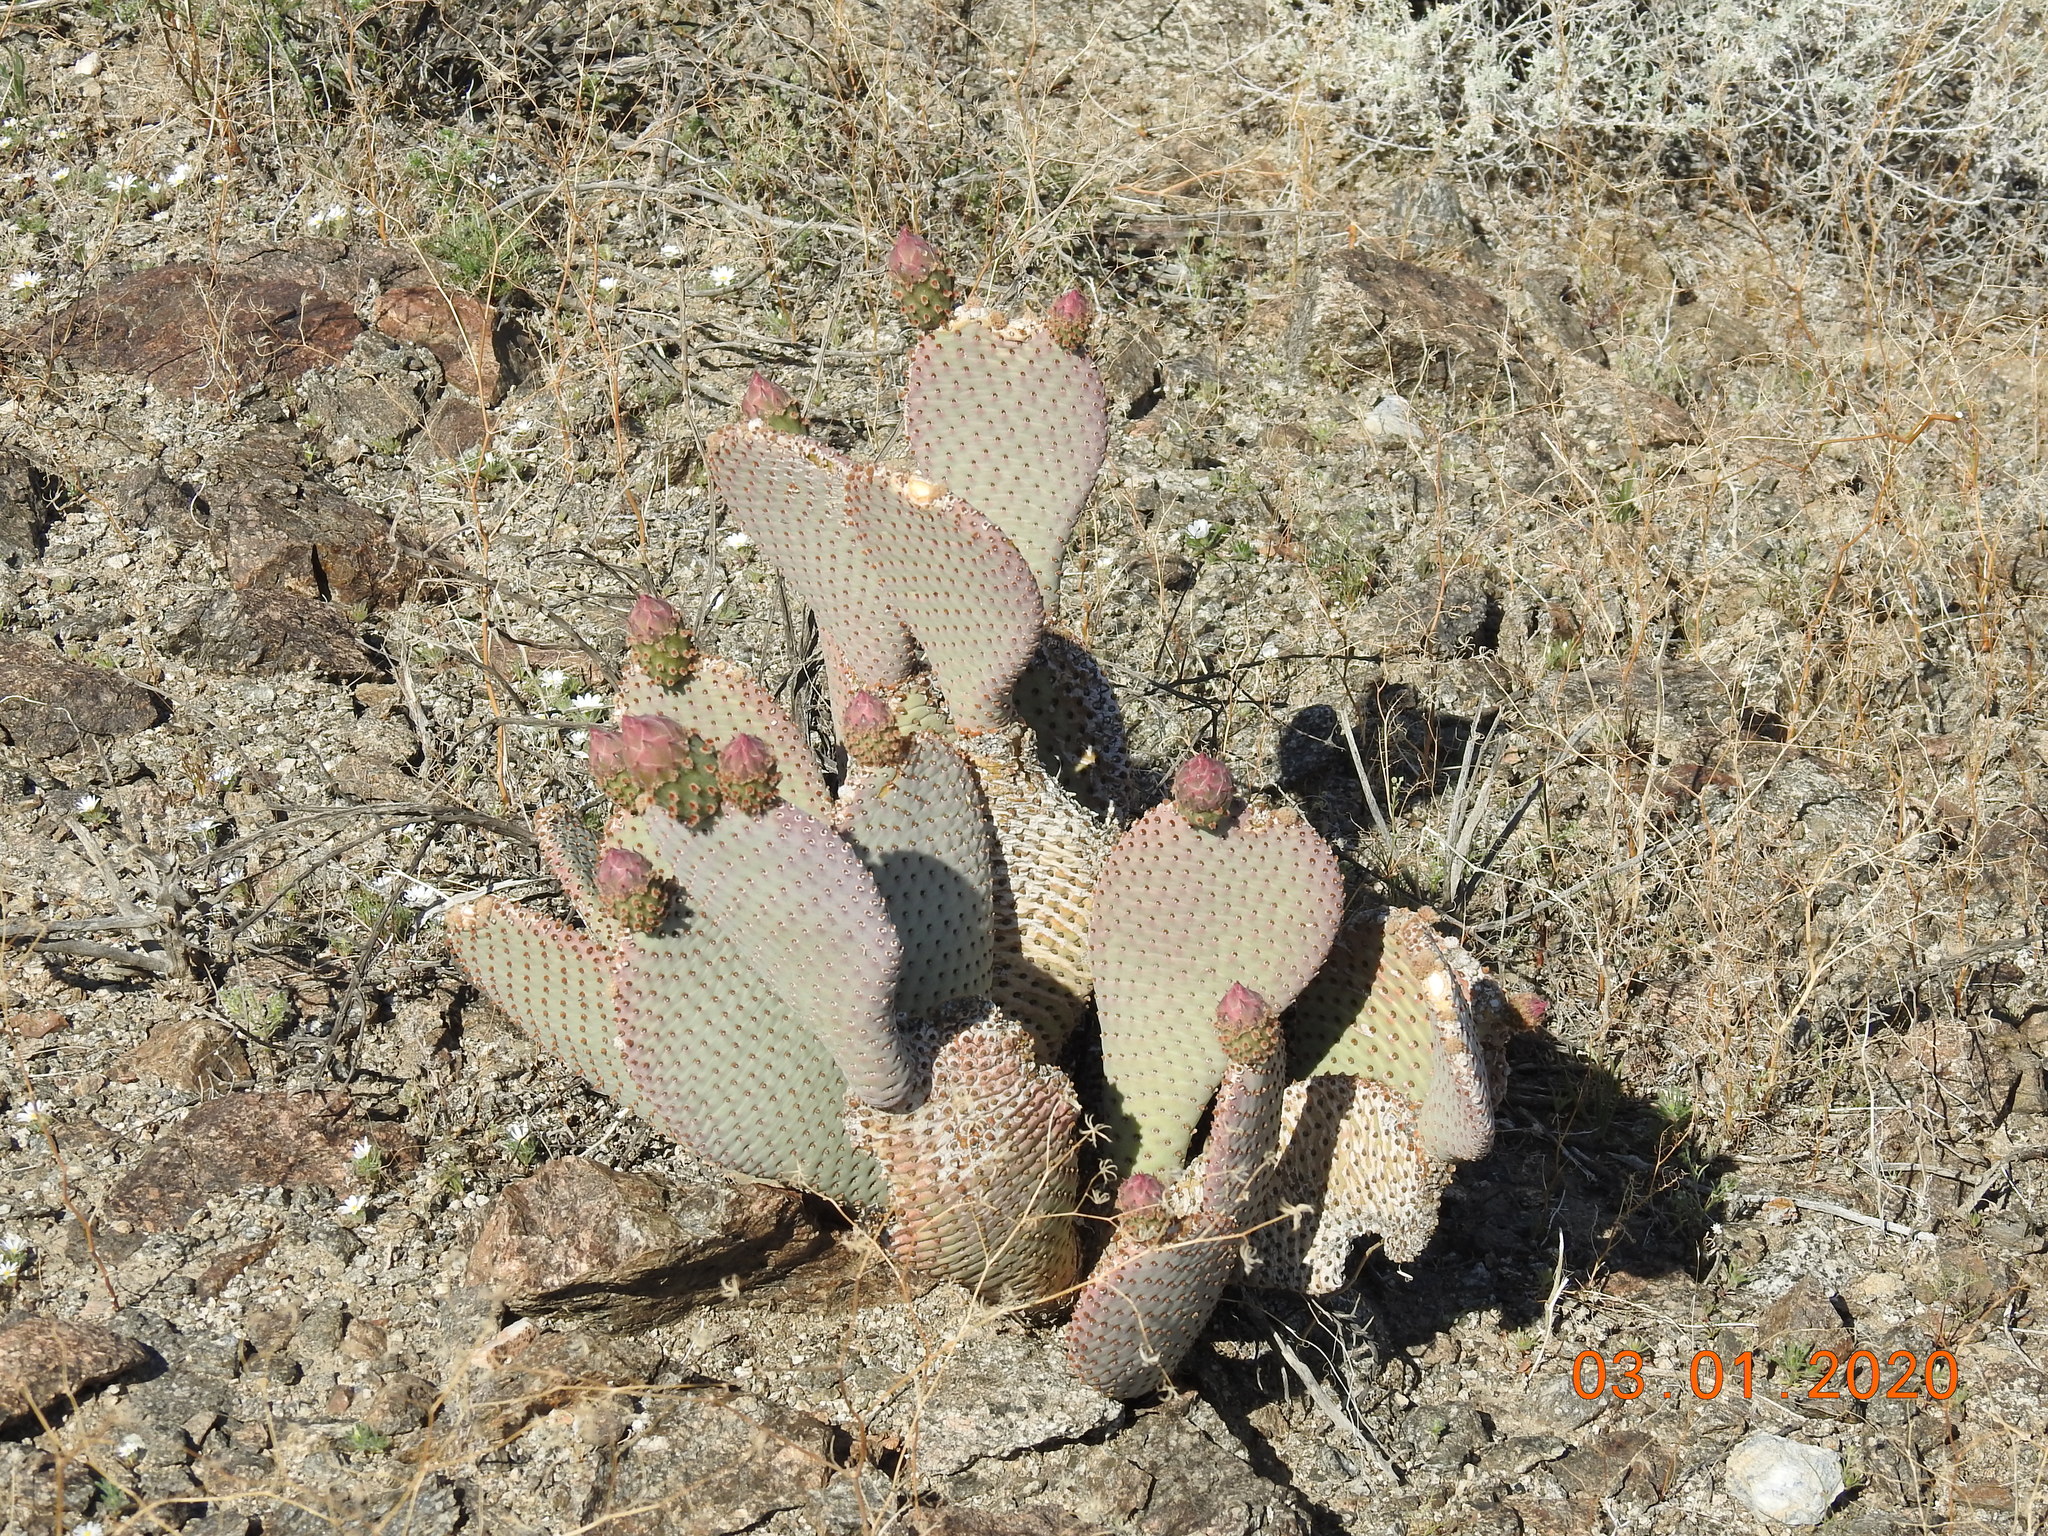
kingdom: Plantae
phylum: Tracheophyta
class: Magnoliopsida
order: Caryophyllales
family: Cactaceae
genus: Opuntia
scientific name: Opuntia basilaris
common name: Beavertail prickly-pear
